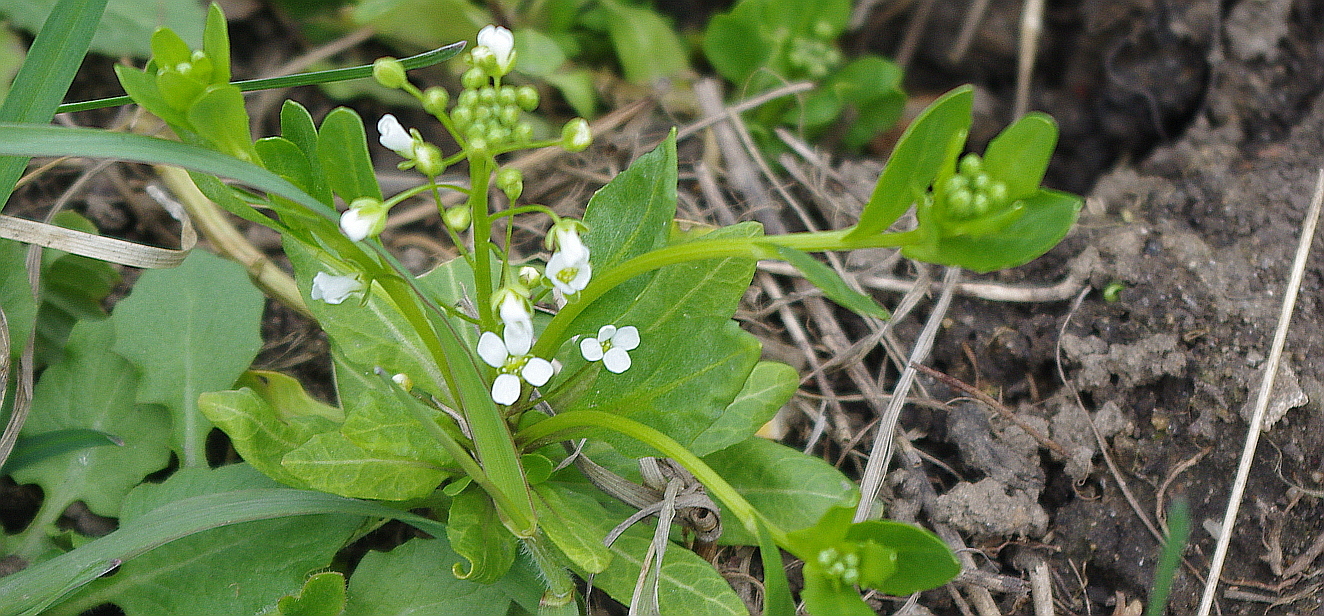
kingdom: Plantae
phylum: Tracheophyta
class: Magnoliopsida
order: Brassicales
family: Brassicaceae
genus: Thlaspi
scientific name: Thlaspi arvense
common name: Field pennycress
